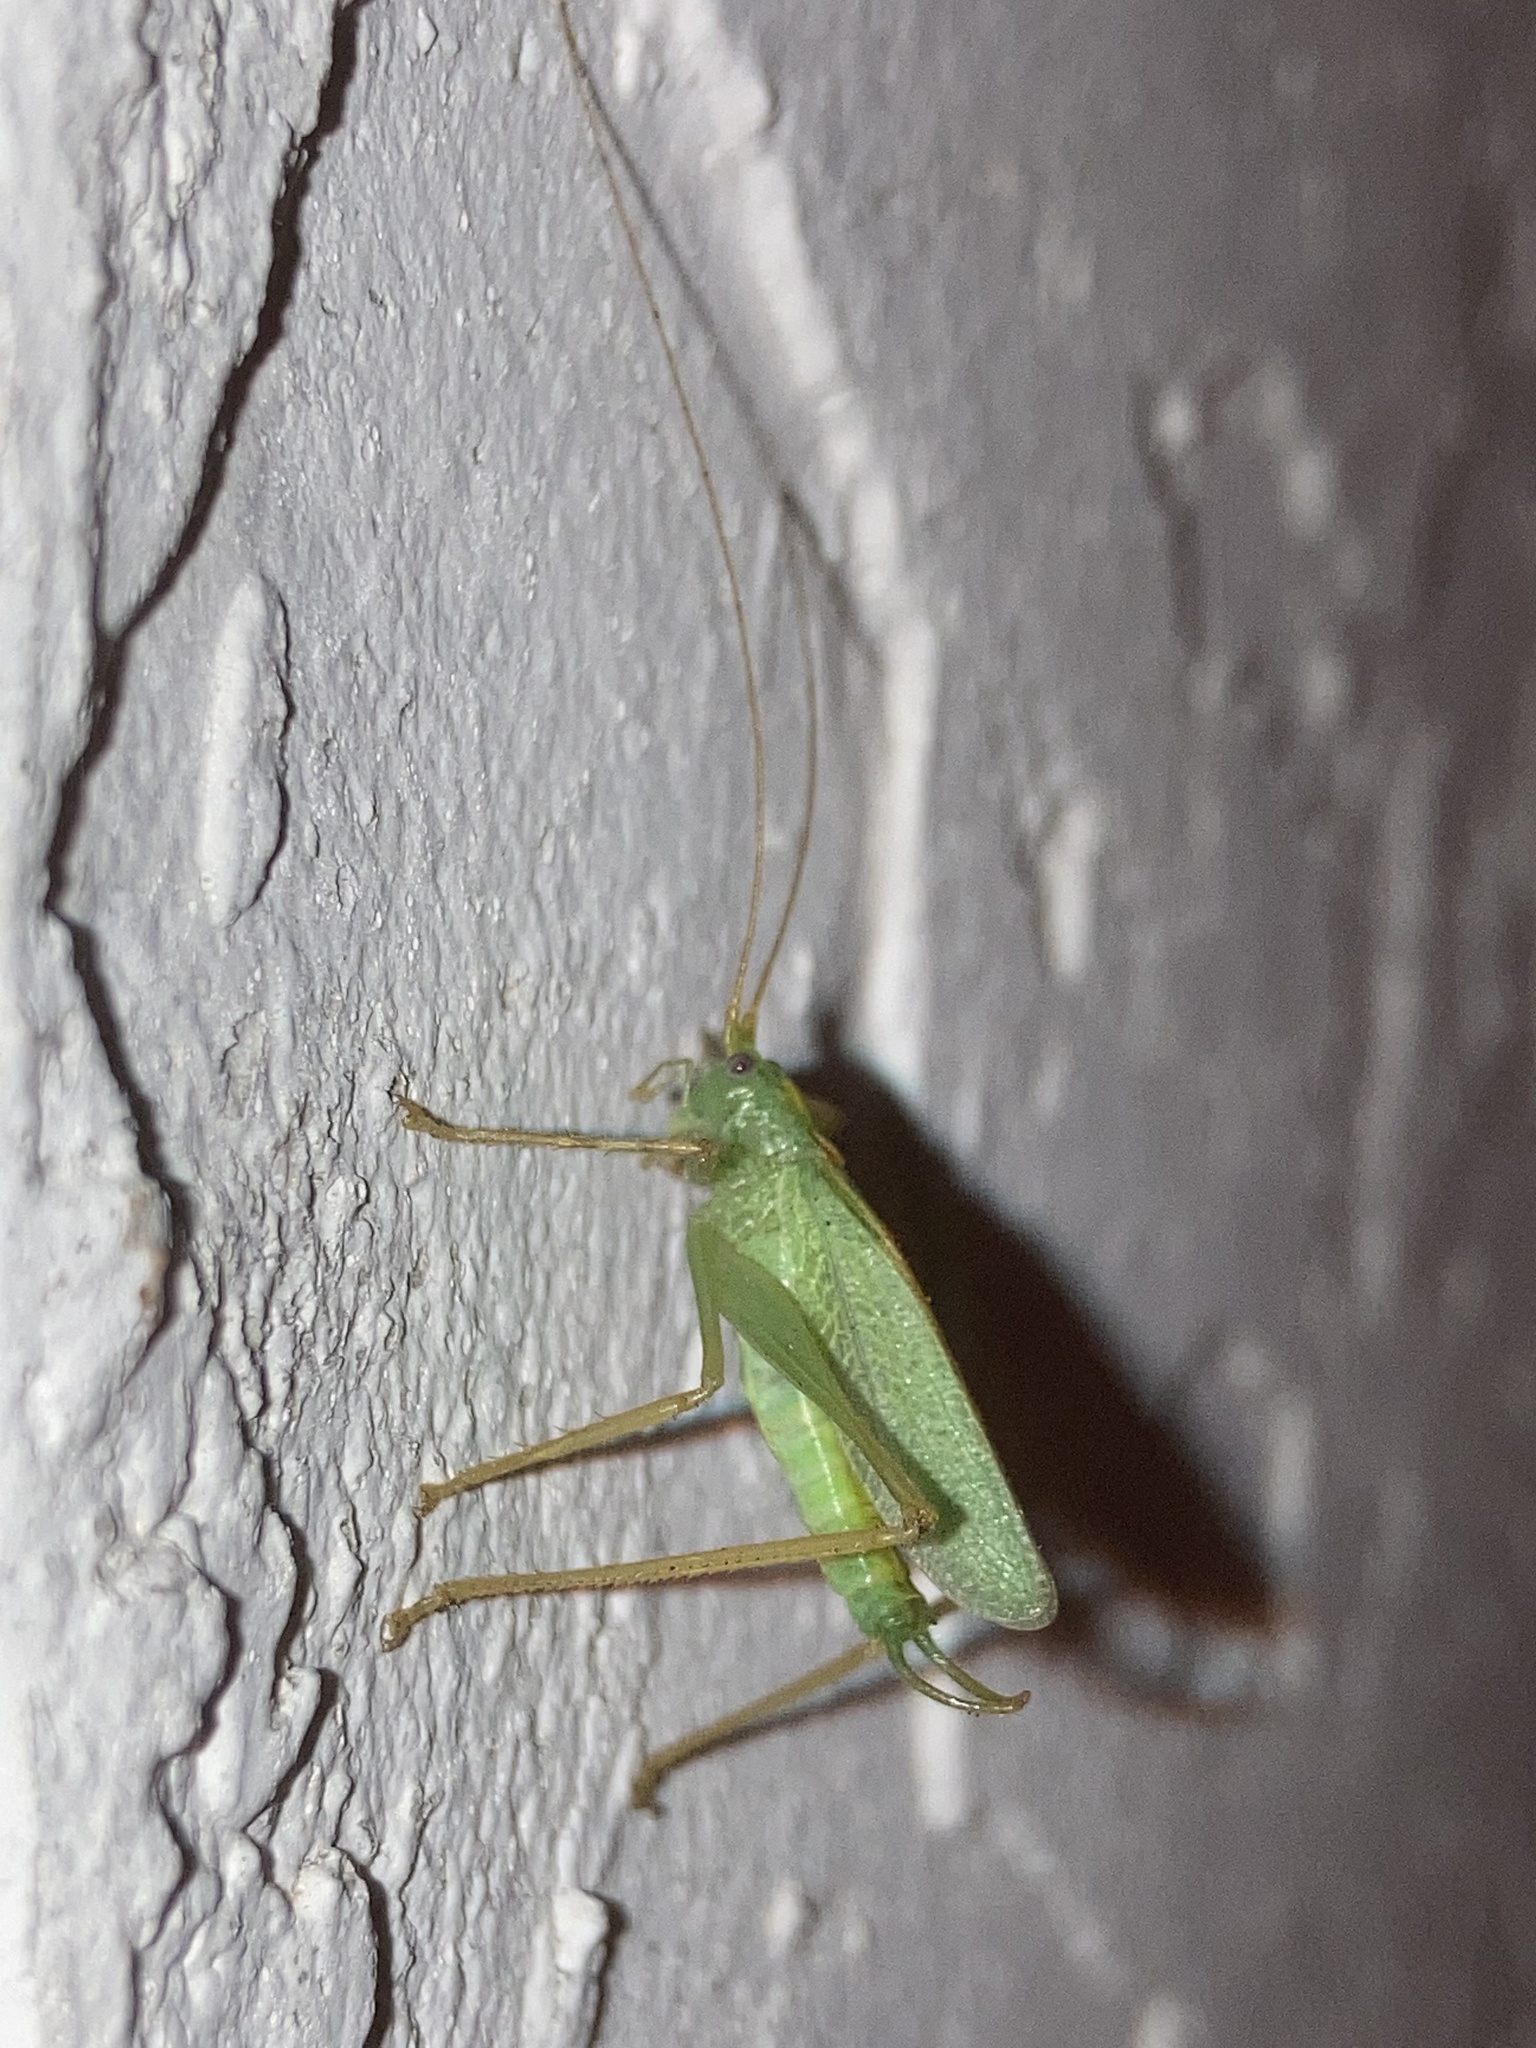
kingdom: Animalia
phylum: Arthropoda
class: Insecta
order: Orthoptera
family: Tettigoniidae
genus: Meconema
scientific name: Meconema thalassinum
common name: Oak bush-cricket
